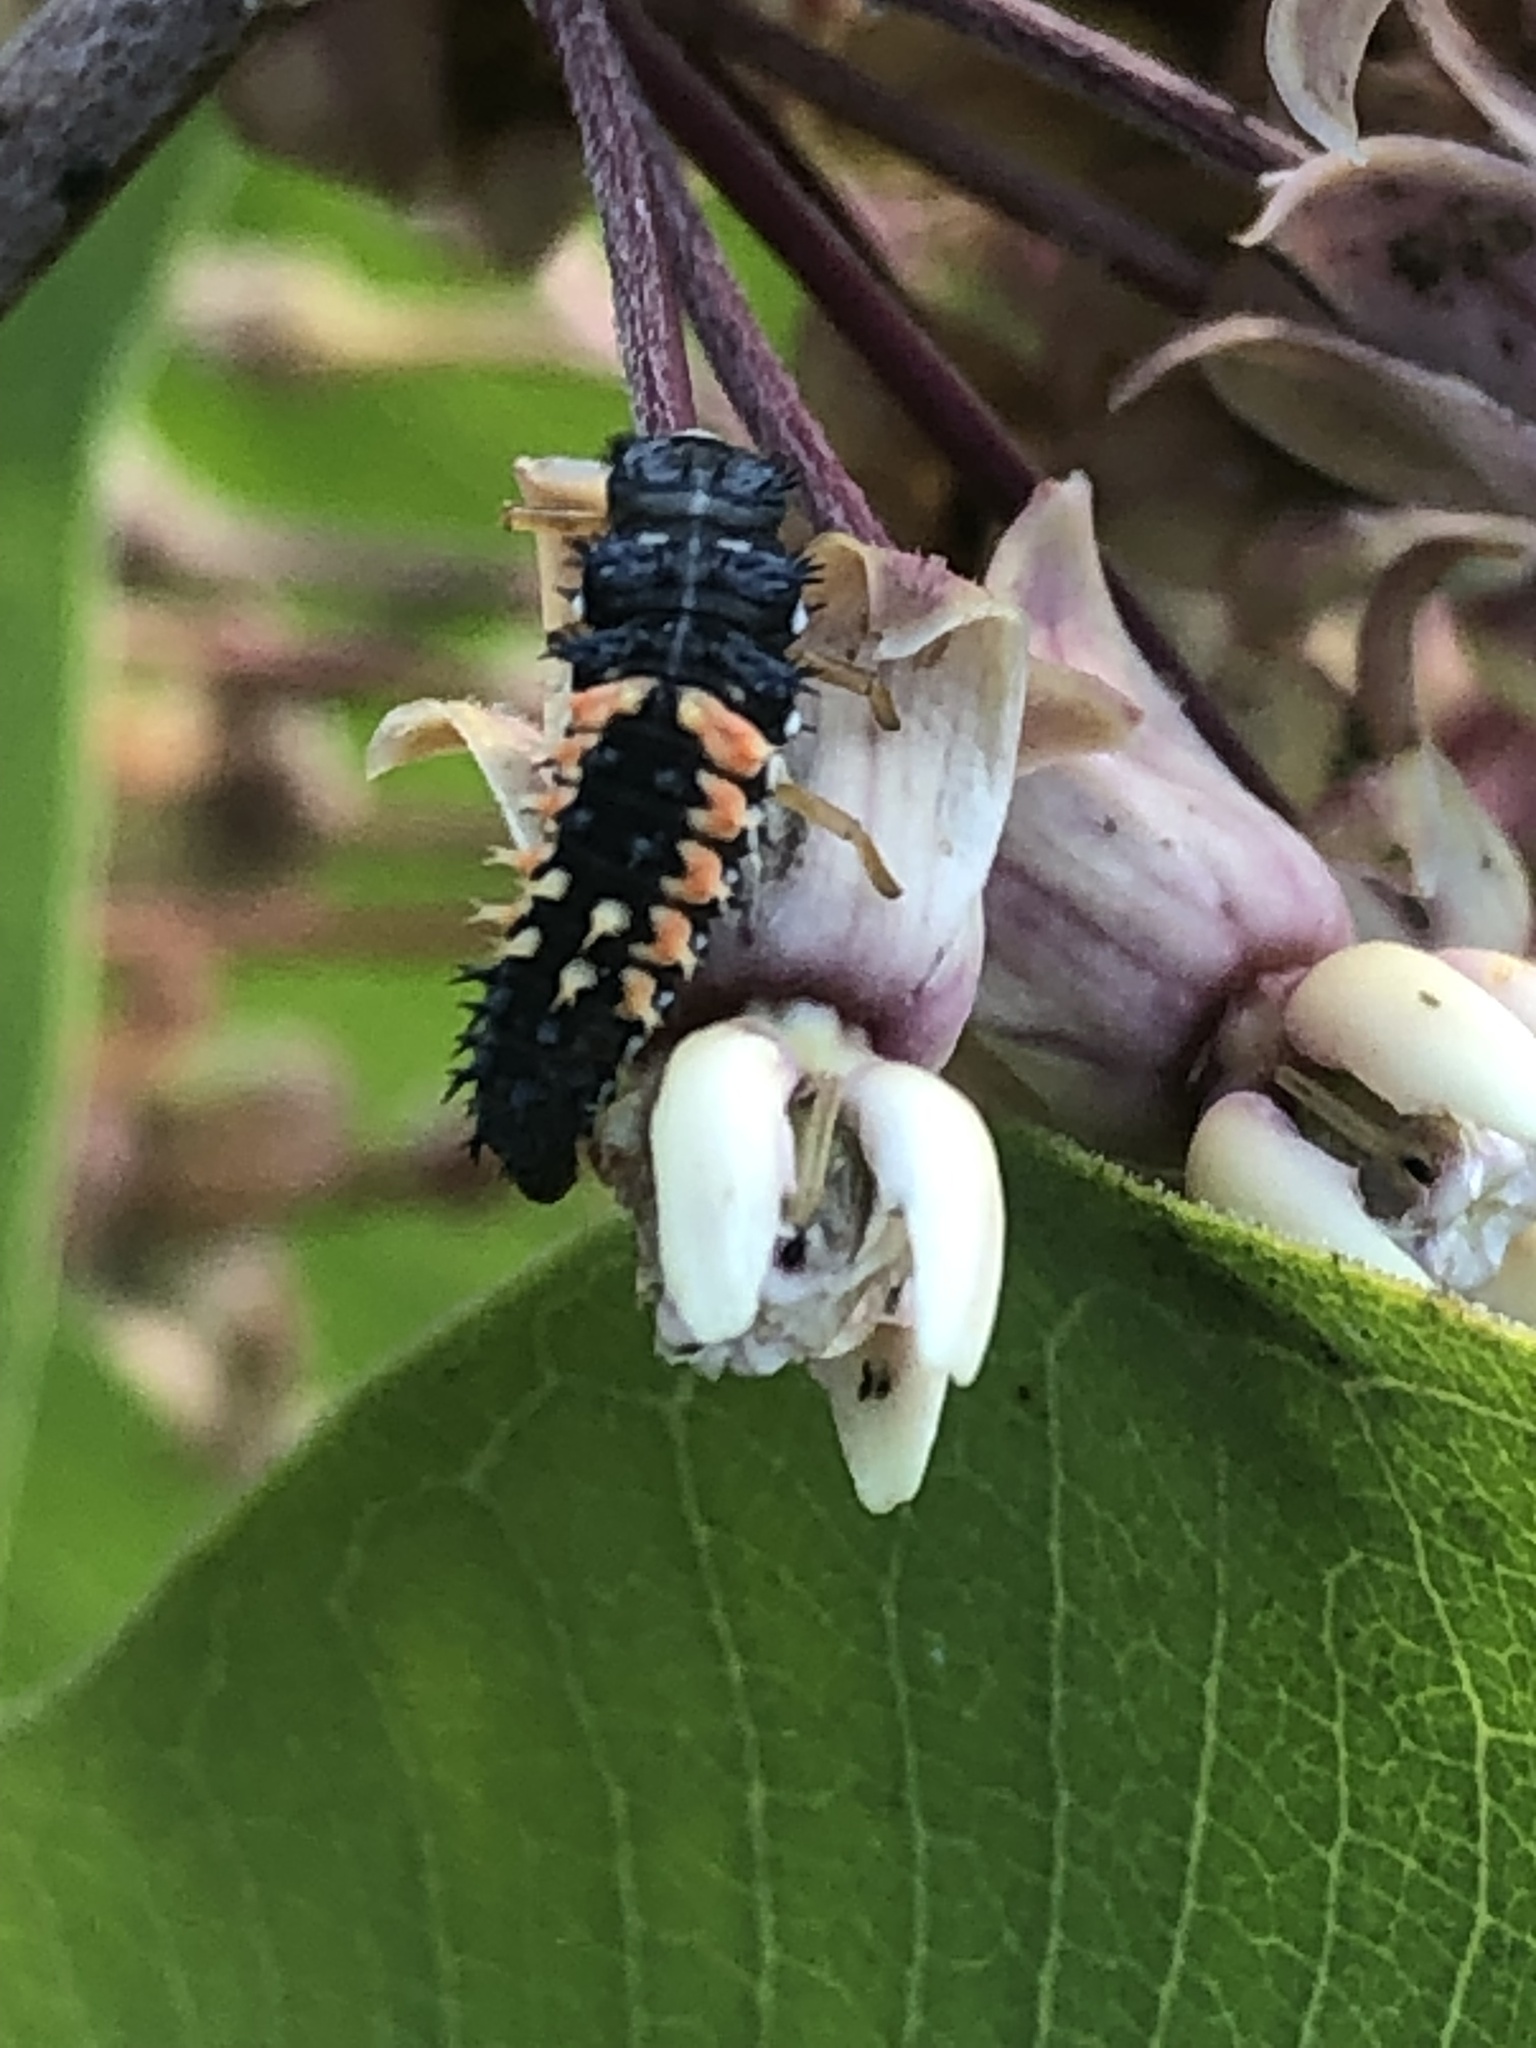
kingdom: Animalia
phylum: Arthropoda
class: Insecta
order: Coleoptera
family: Coccinellidae
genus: Harmonia
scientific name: Harmonia axyridis
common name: Harlequin ladybird
